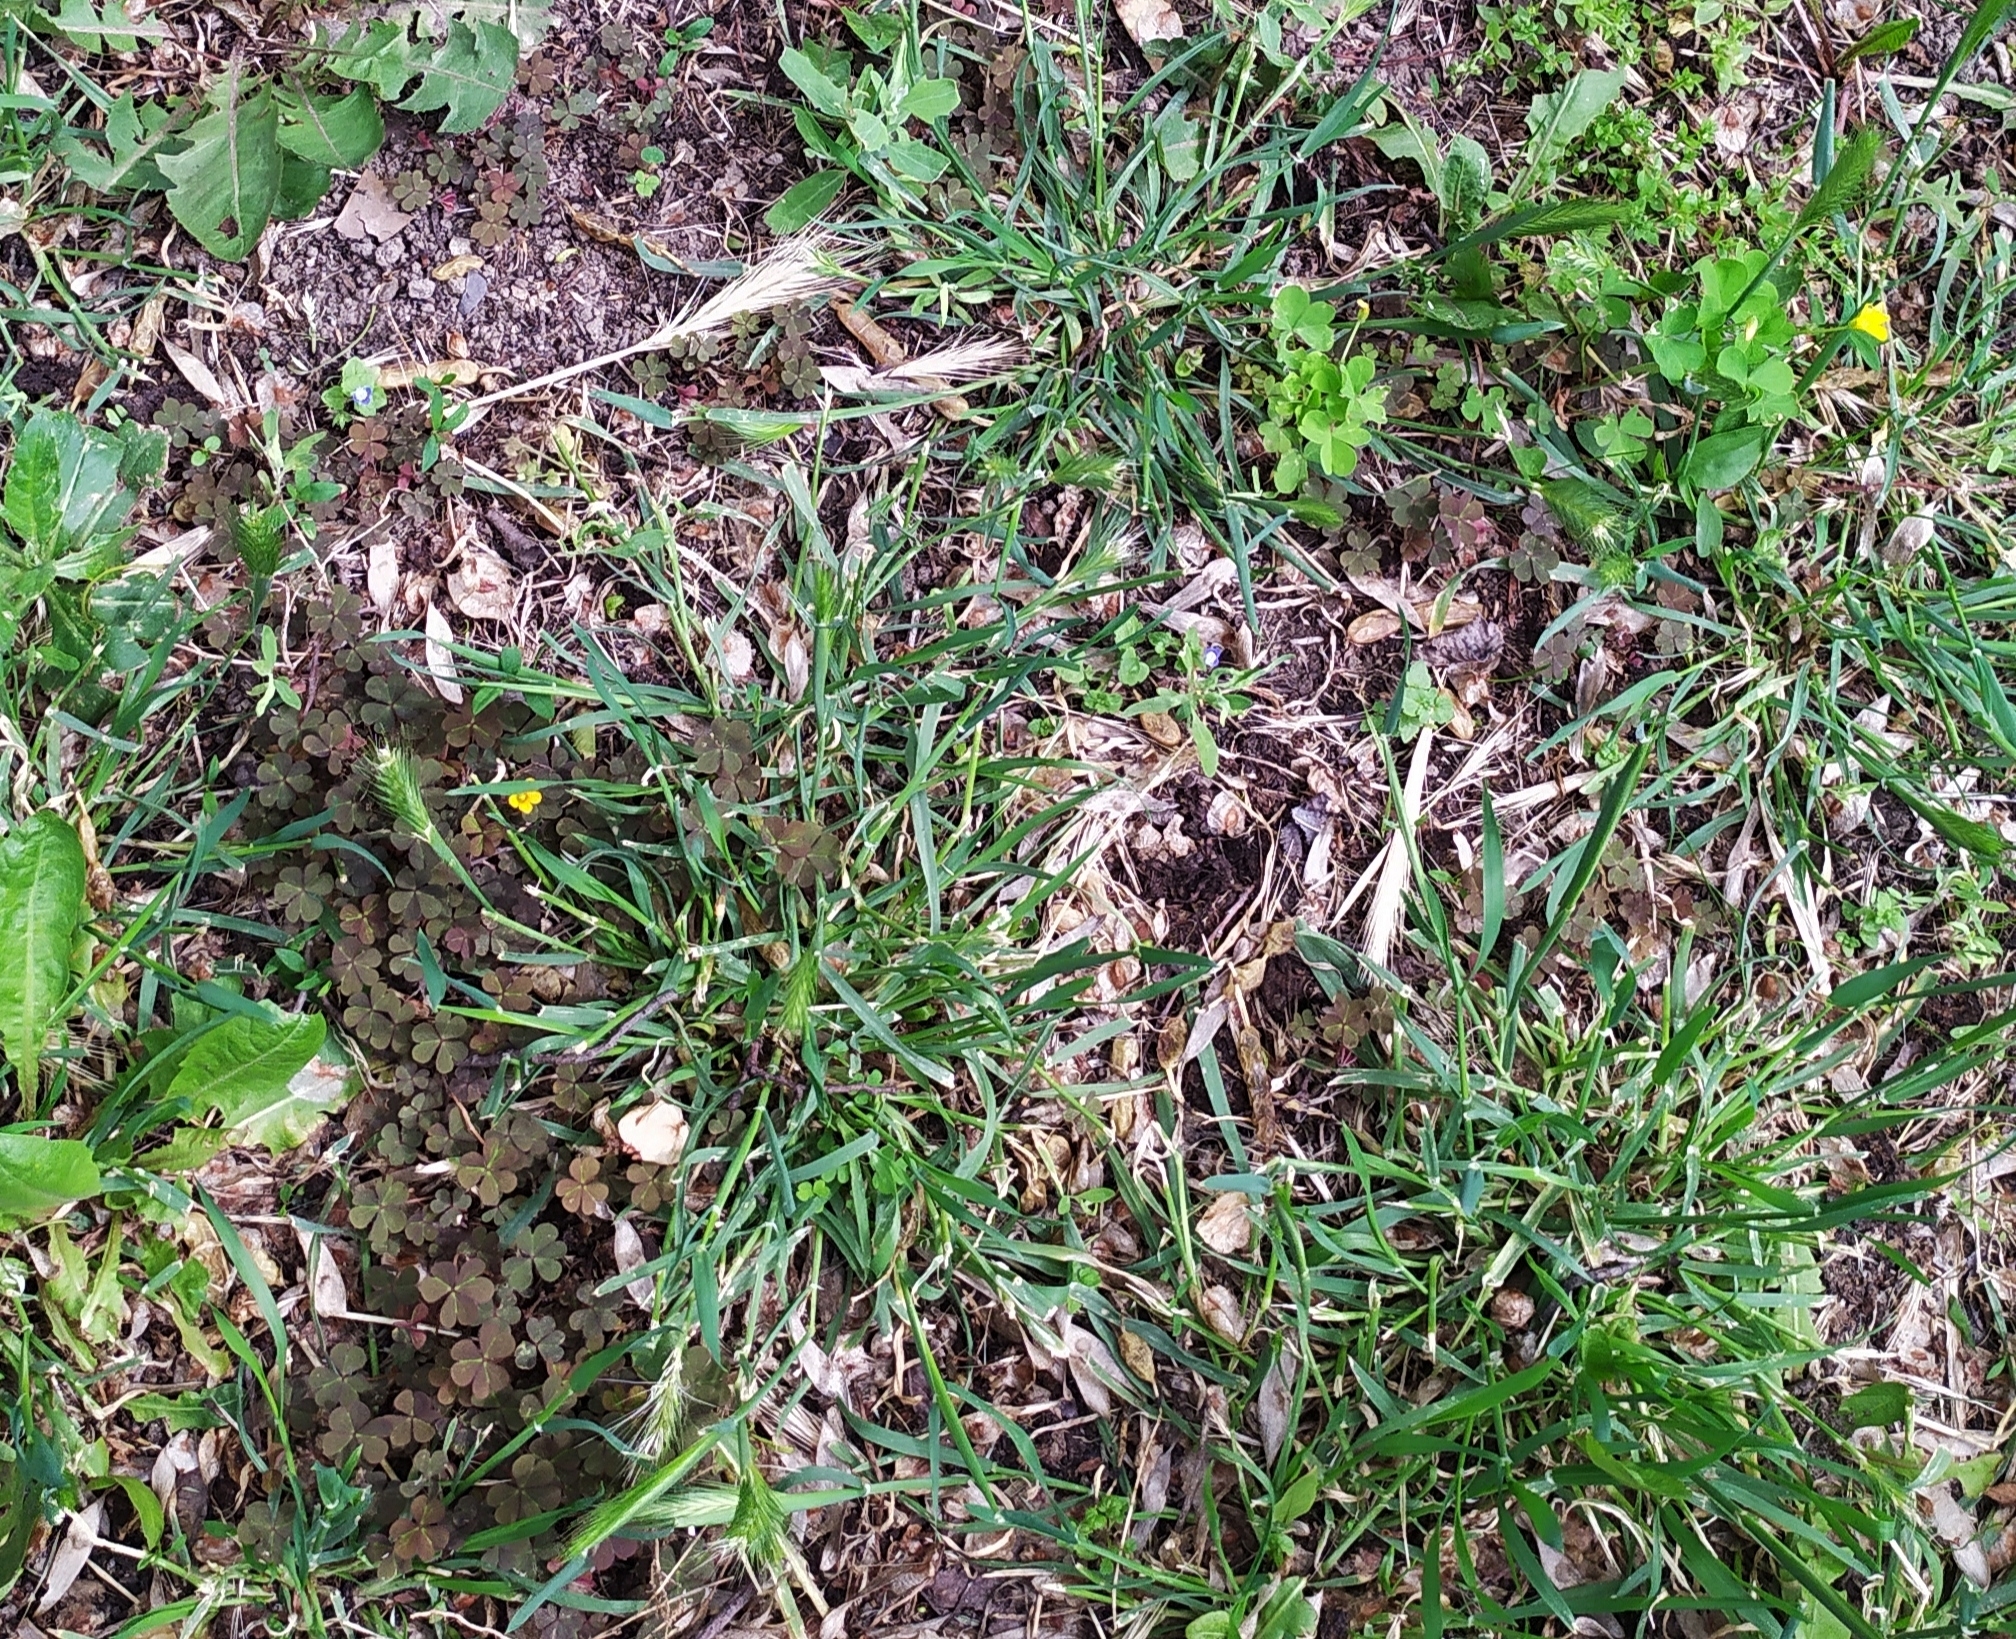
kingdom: Plantae
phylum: Tracheophyta
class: Magnoliopsida
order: Oxalidales
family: Oxalidaceae
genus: Oxalis
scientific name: Oxalis corniculata
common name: Procumbent yellow-sorrel
